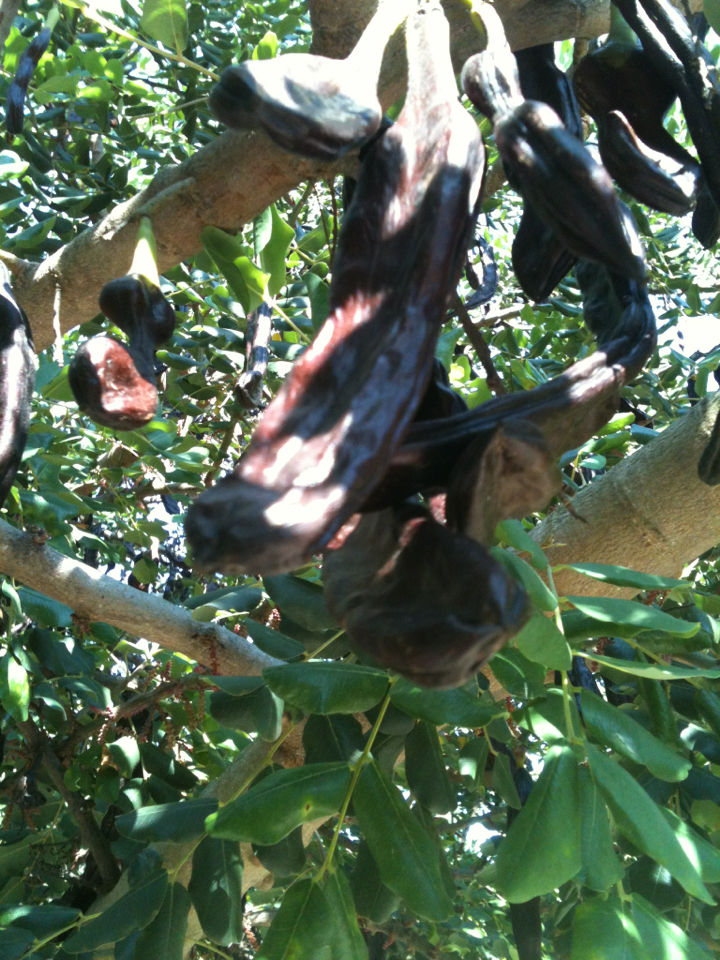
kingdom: Plantae
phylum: Tracheophyta
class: Magnoliopsida
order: Fabales
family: Fabaceae
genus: Ceratonia
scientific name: Ceratonia siliqua
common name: Carob
